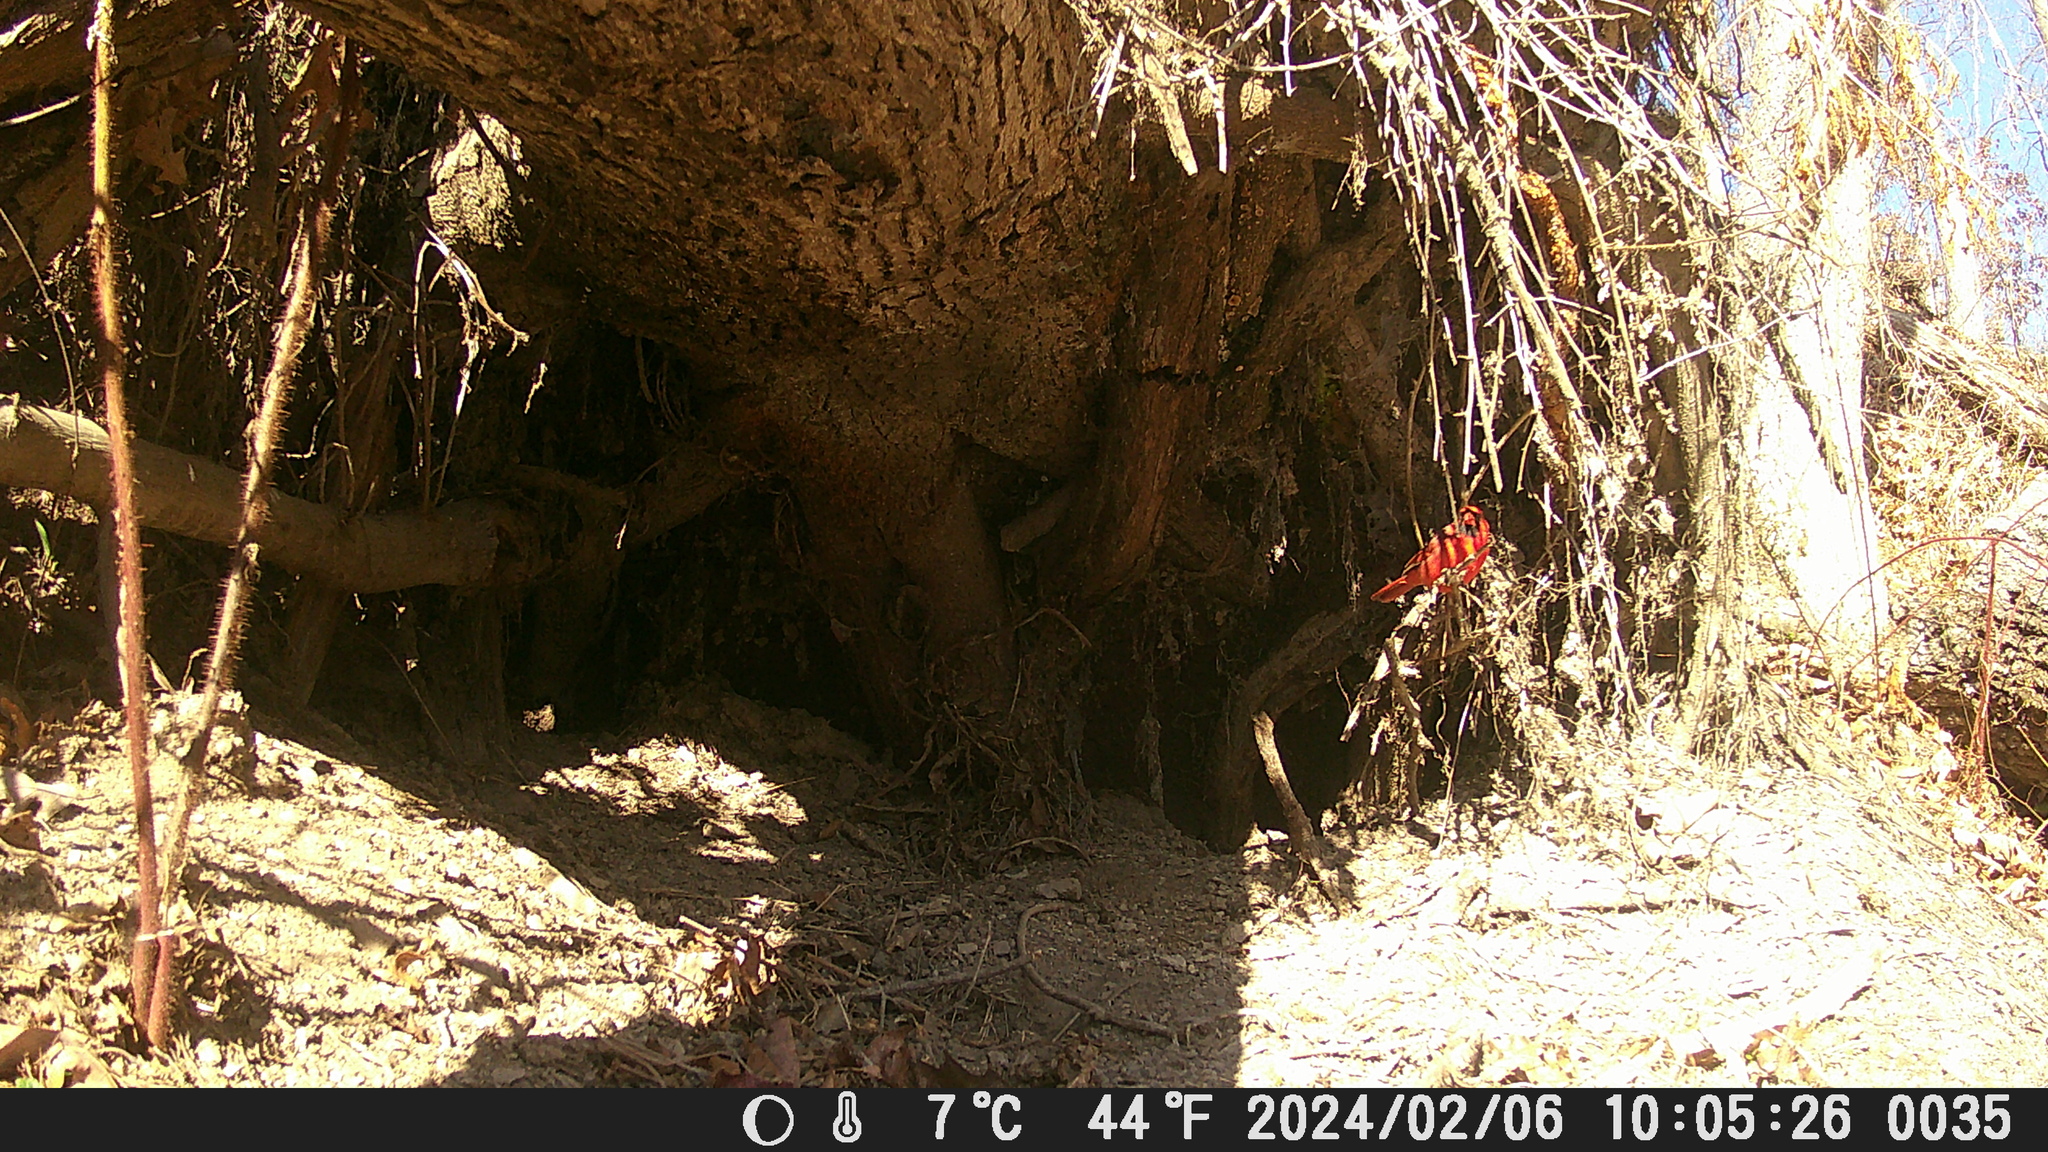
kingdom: Animalia
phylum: Chordata
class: Aves
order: Passeriformes
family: Cardinalidae
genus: Cardinalis
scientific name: Cardinalis cardinalis
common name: Northern cardinal
